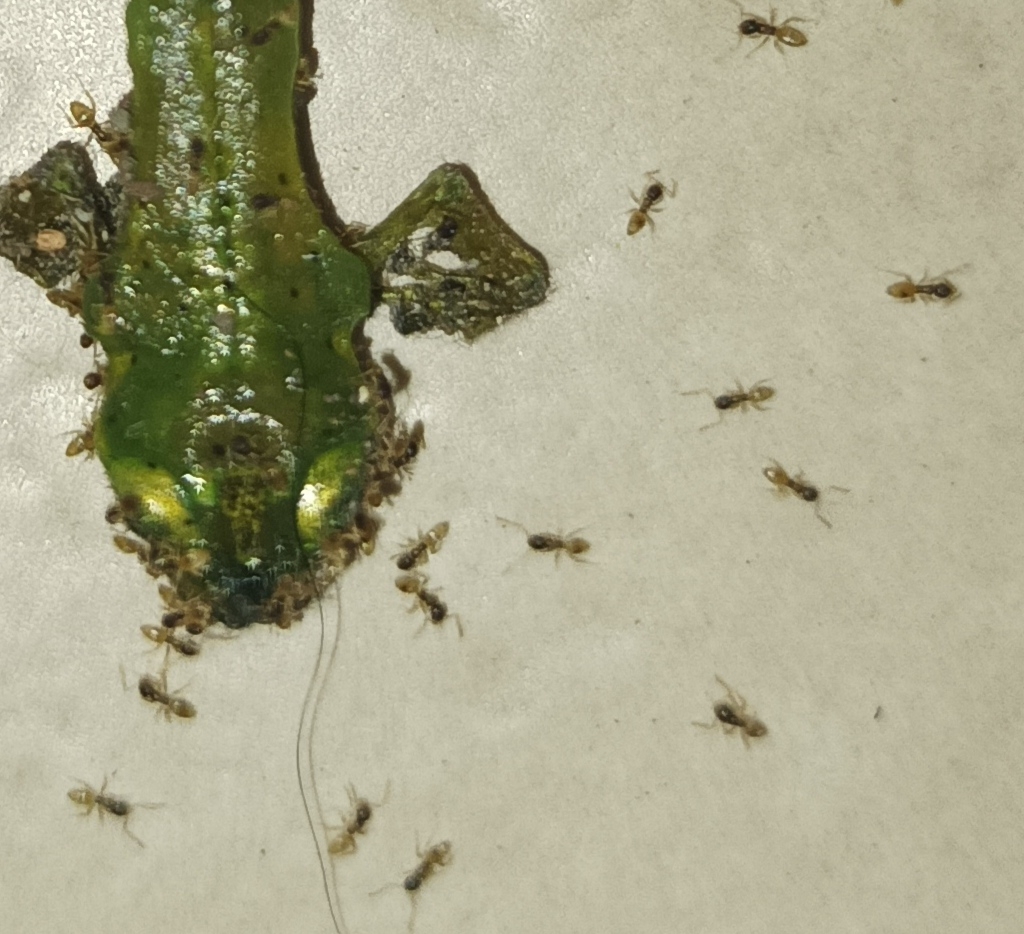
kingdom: Animalia
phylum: Arthropoda
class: Insecta
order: Hymenoptera
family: Formicidae
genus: Tapinoma
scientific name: Tapinoma melanocephalum
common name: Ghost ant
